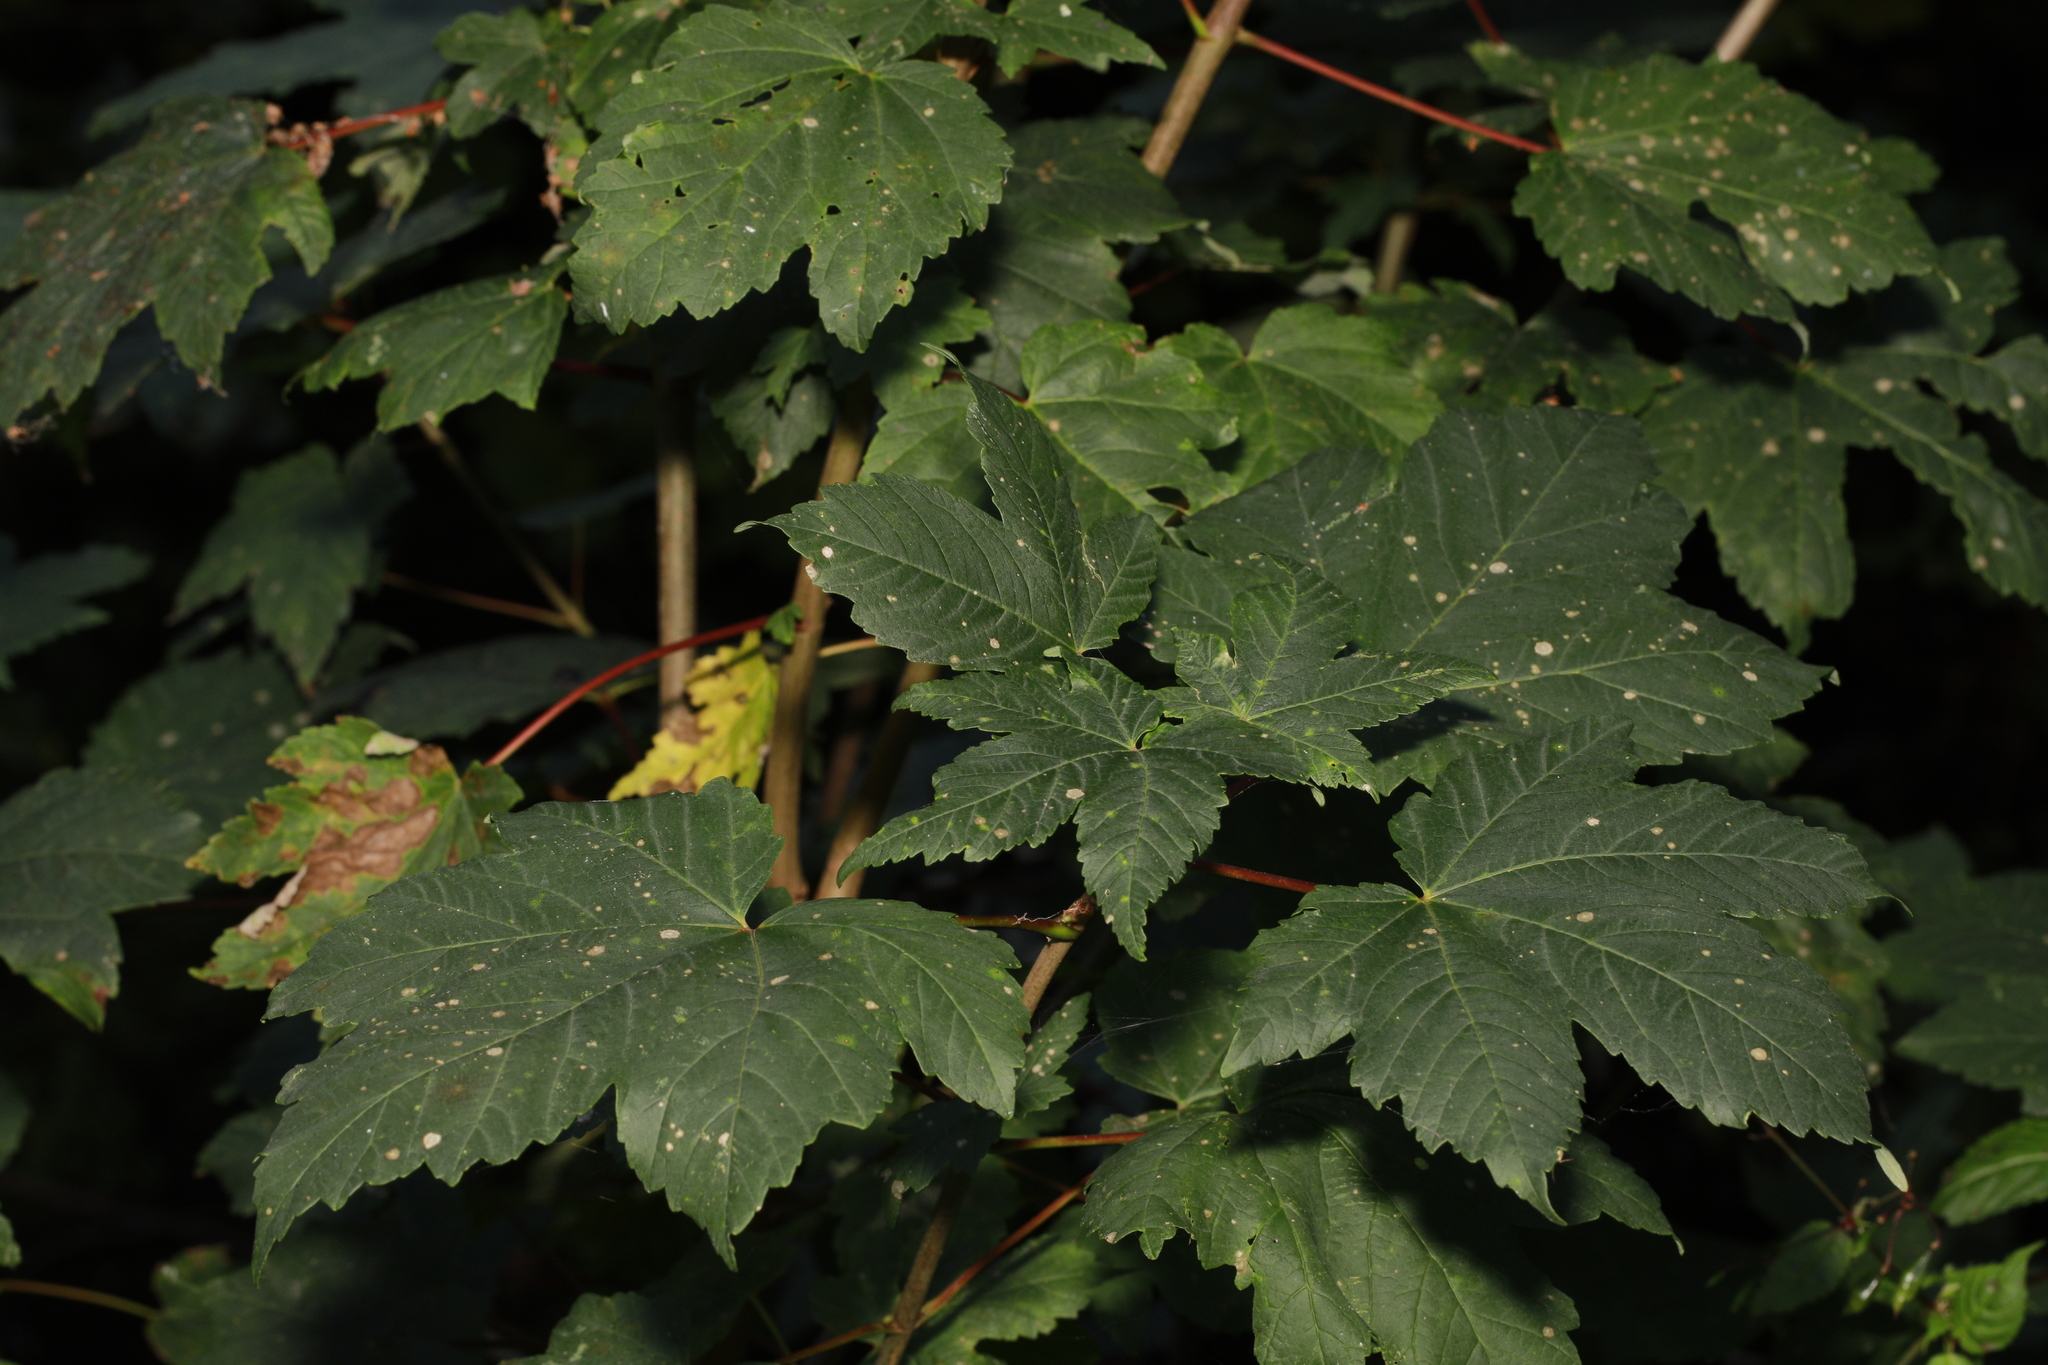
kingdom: Plantae
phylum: Tracheophyta
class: Magnoliopsida
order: Sapindales
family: Sapindaceae
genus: Acer
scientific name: Acer pseudoplatanus
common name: Sycamore
